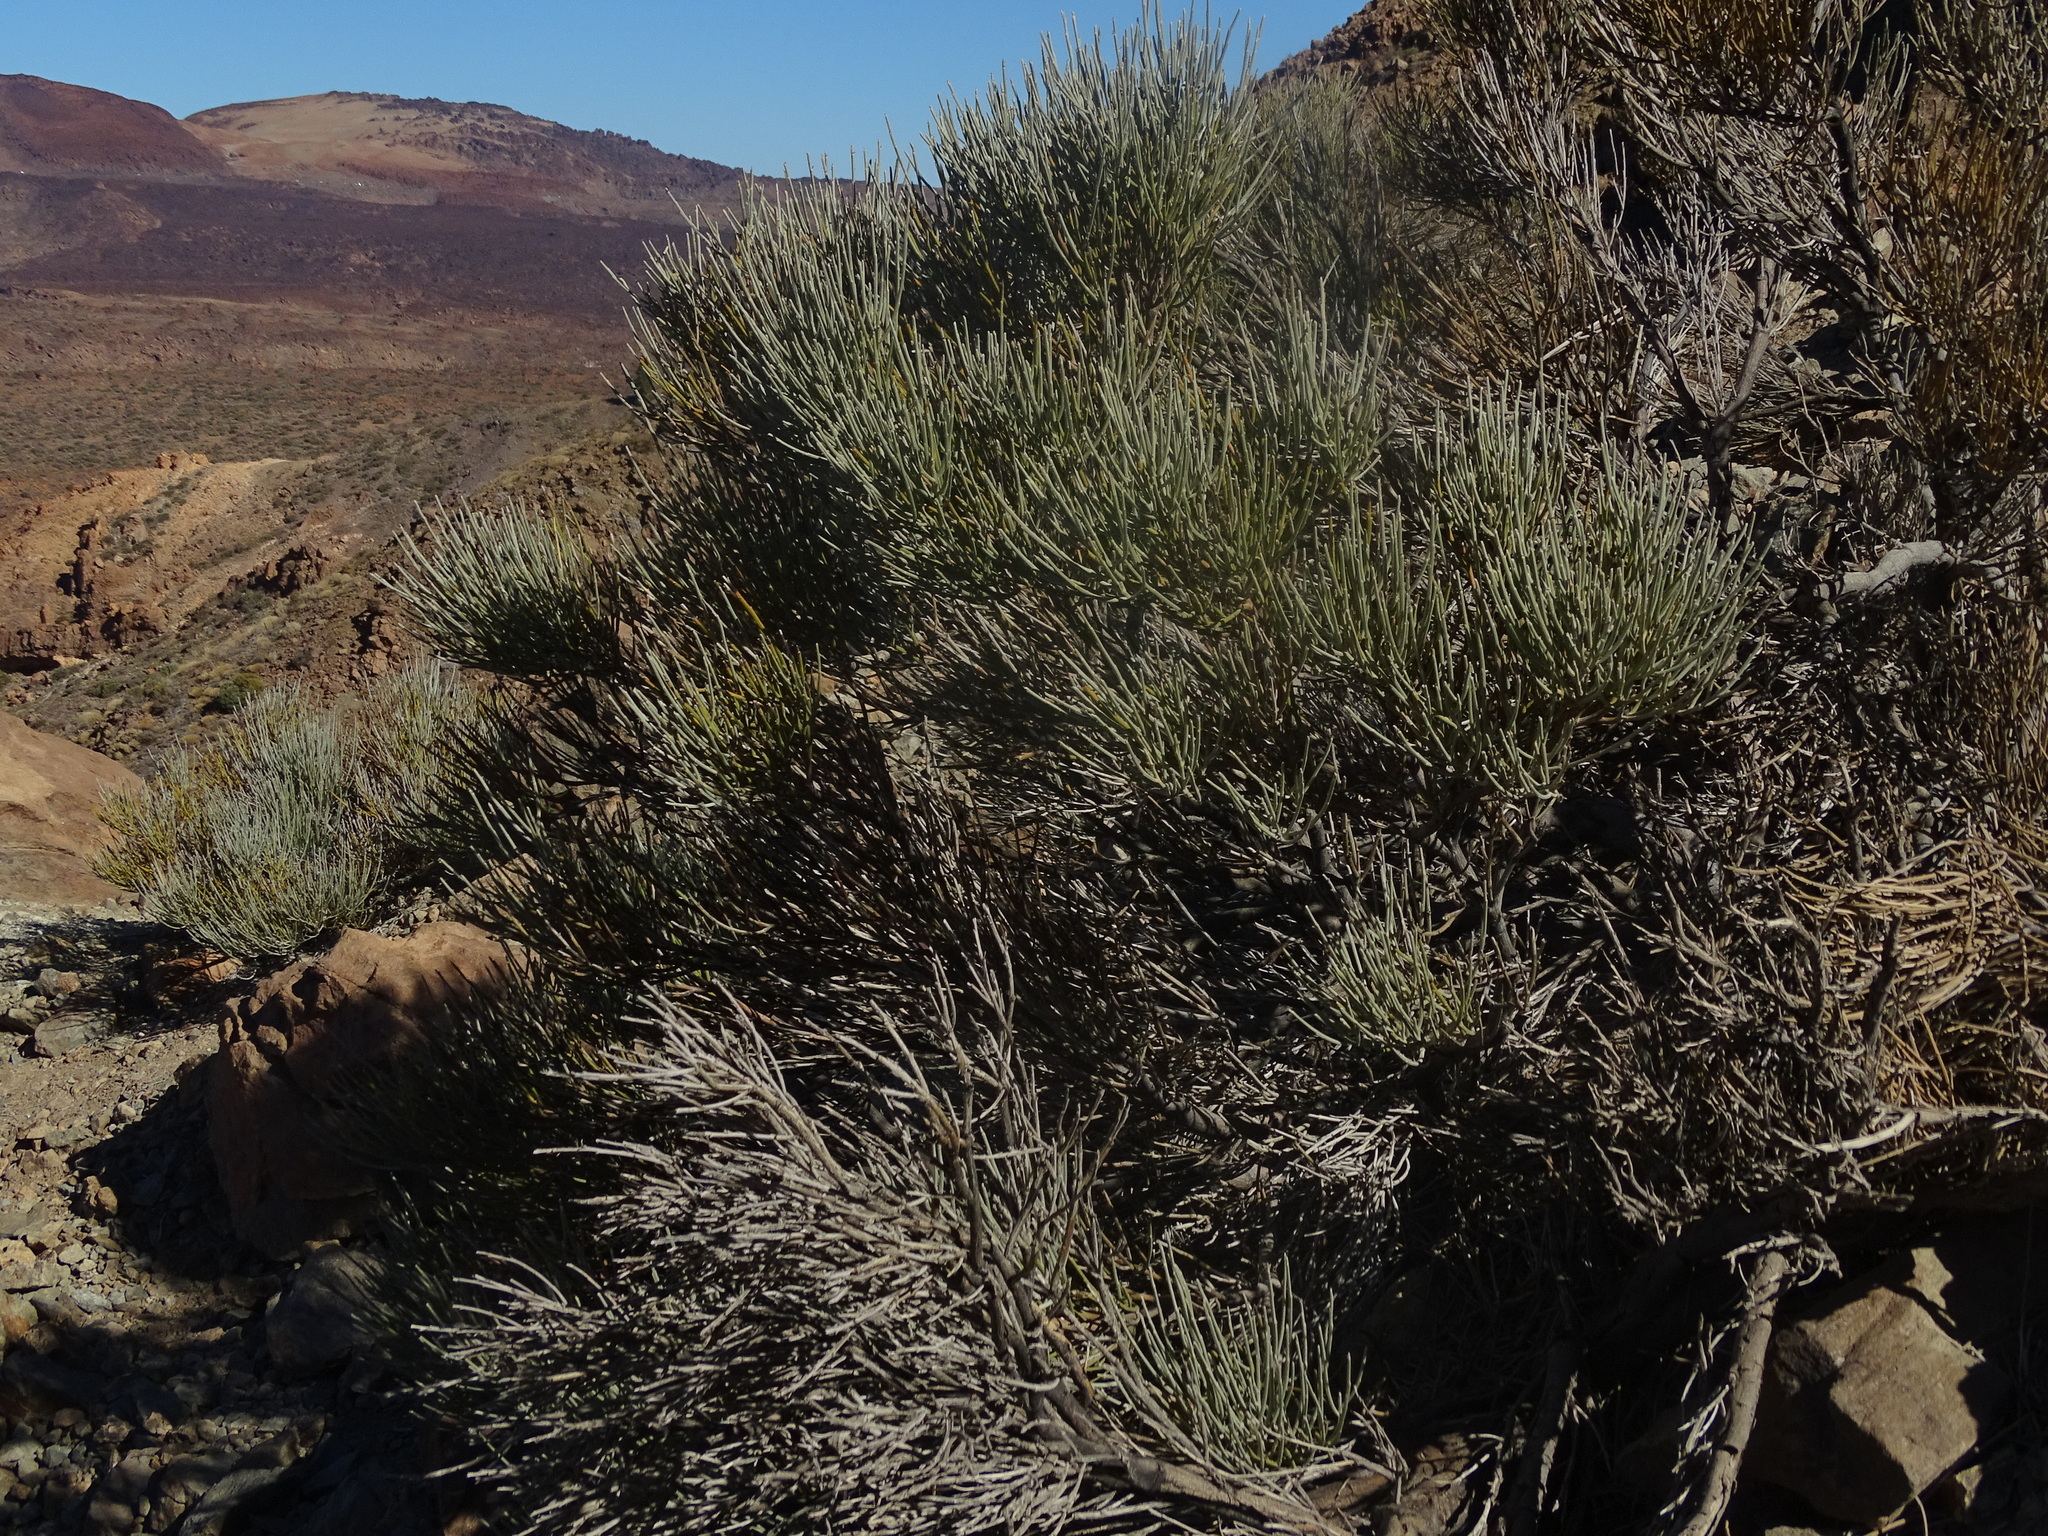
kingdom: Plantae
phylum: Tracheophyta
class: Magnoliopsida
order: Fabales
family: Fabaceae
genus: Cytisus
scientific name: Cytisus supranubius
